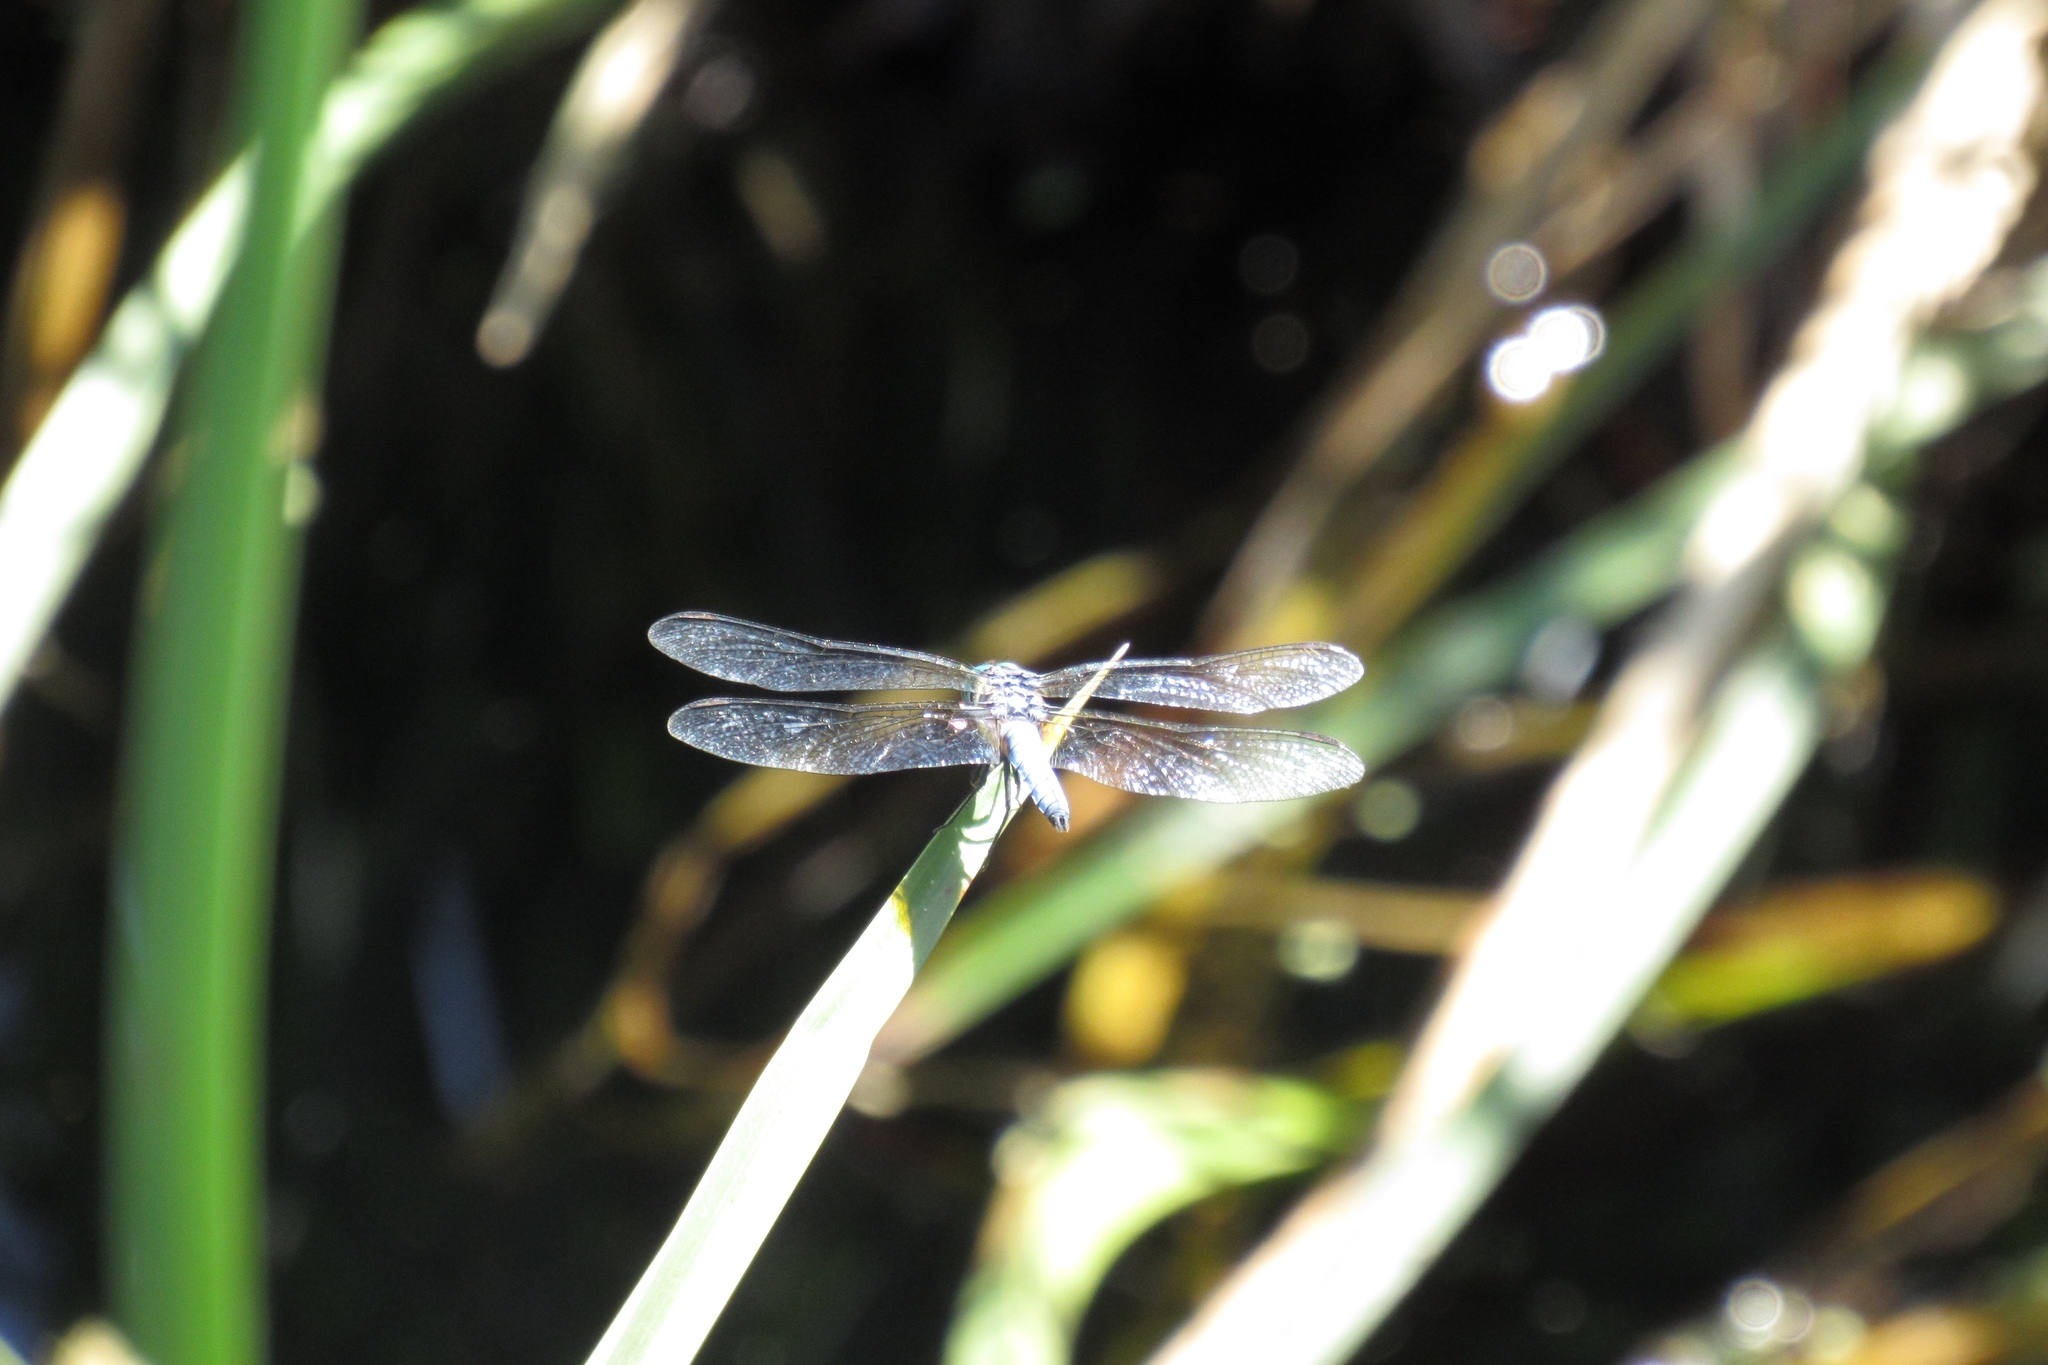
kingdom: Animalia
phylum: Arthropoda
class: Insecta
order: Odonata
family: Libellulidae
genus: Pachydiplax
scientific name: Pachydiplax longipennis
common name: Blue dasher
